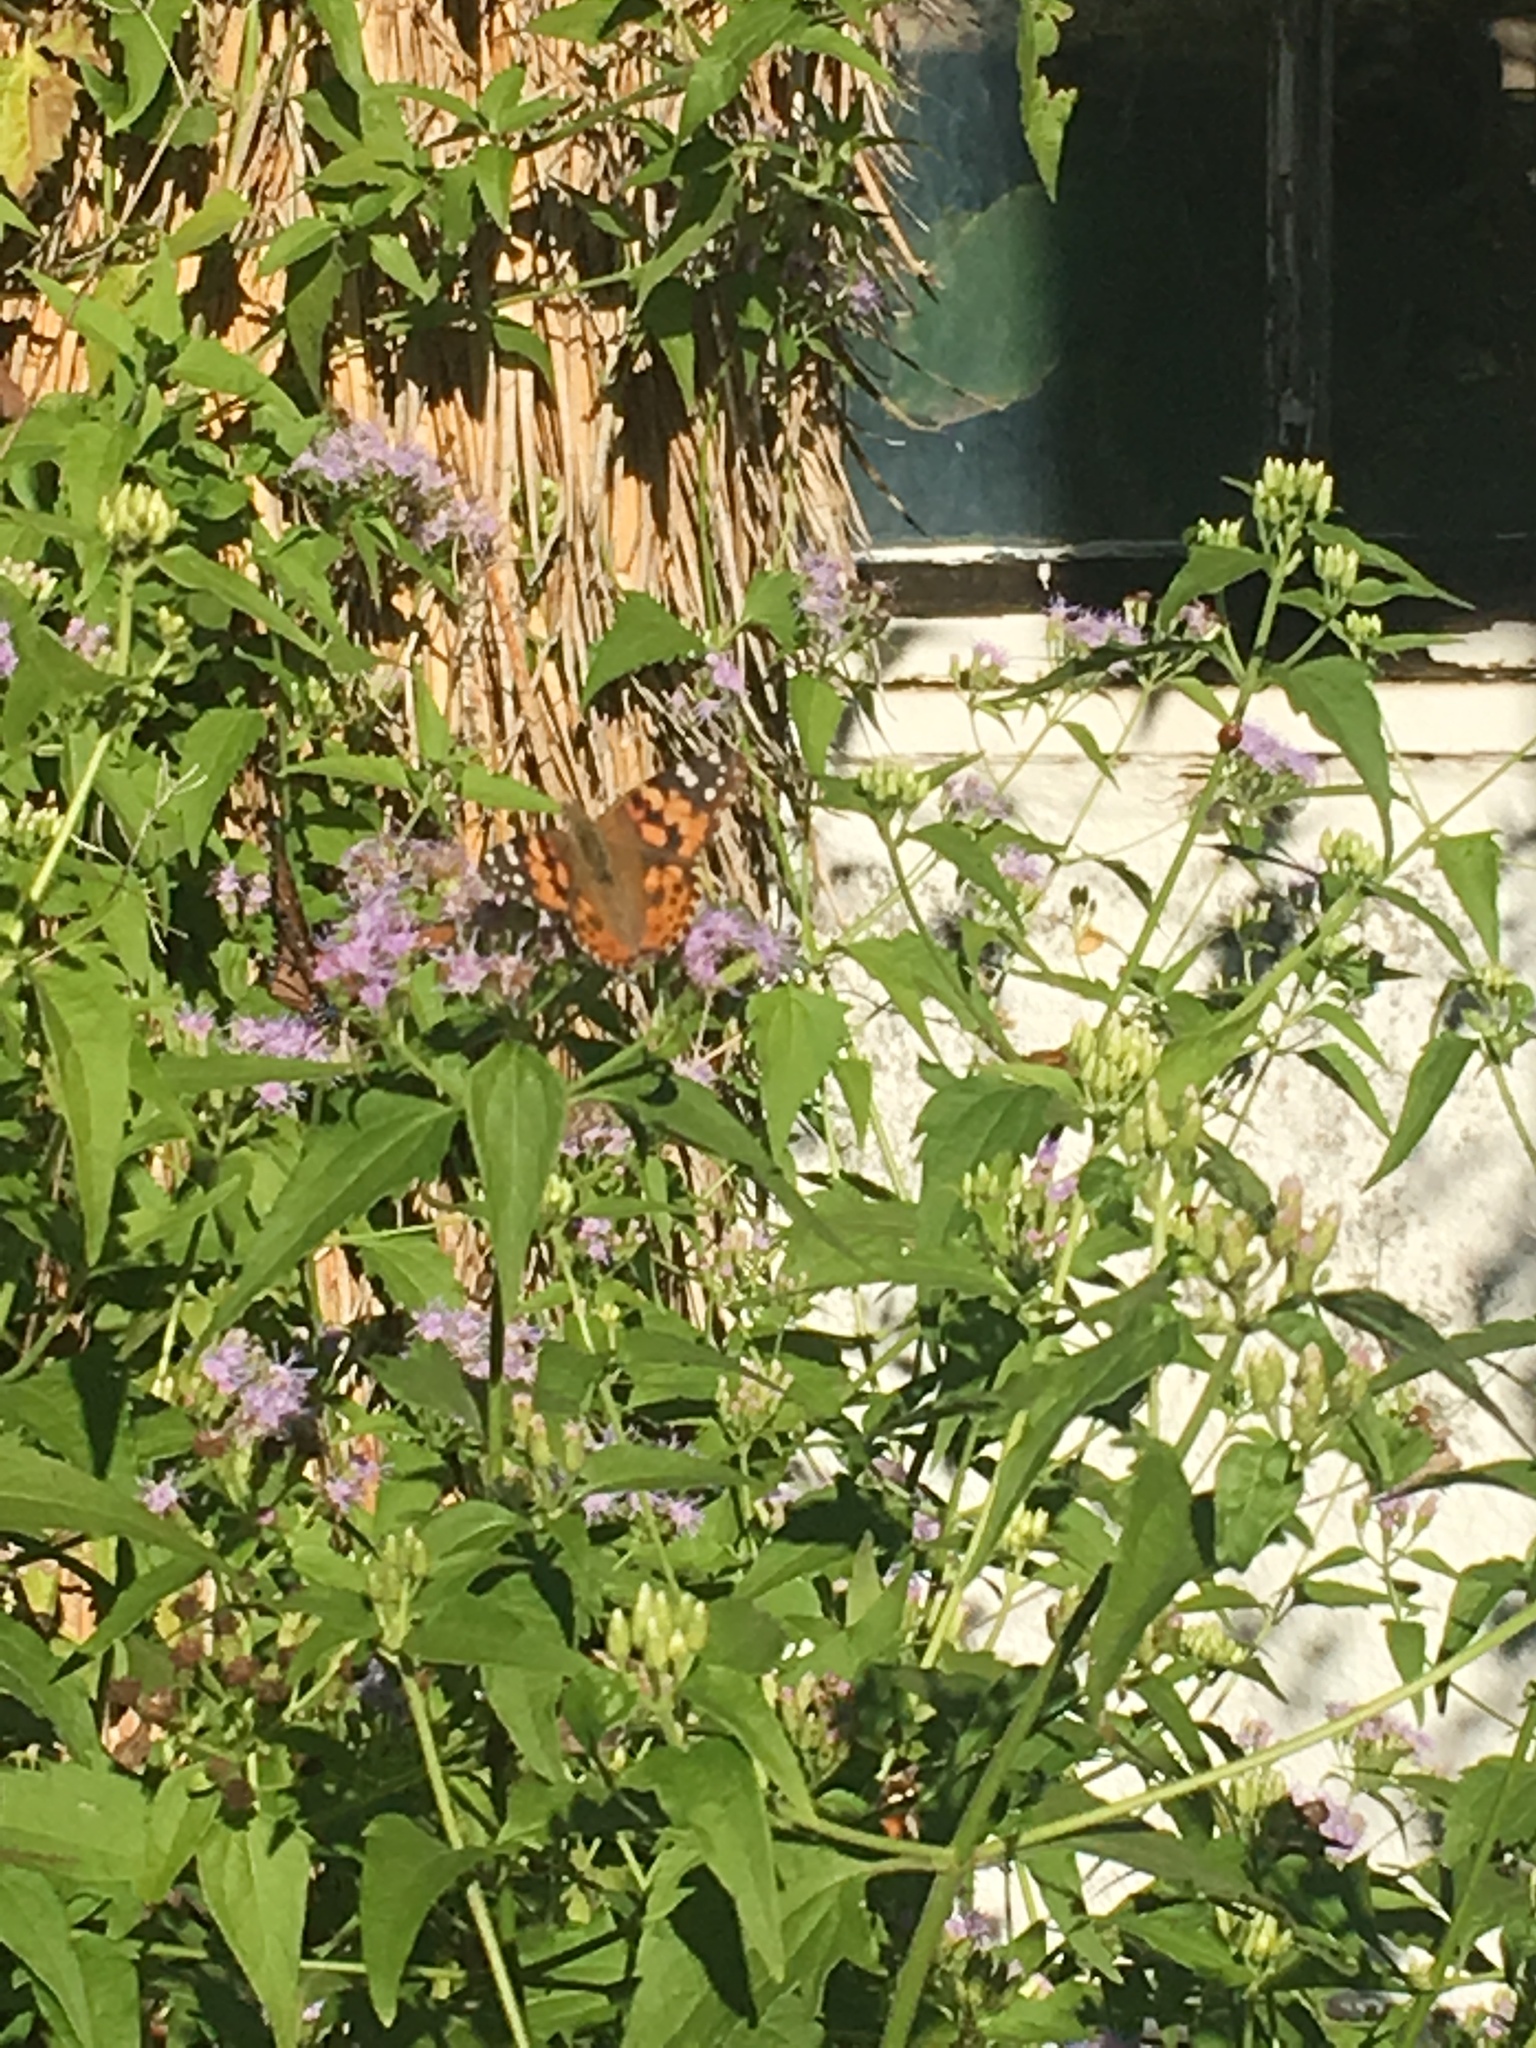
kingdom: Animalia
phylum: Arthropoda
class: Insecta
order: Lepidoptera
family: Nymphalidae
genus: Vanessa
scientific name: Vanessa cardui
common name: Painted lady
